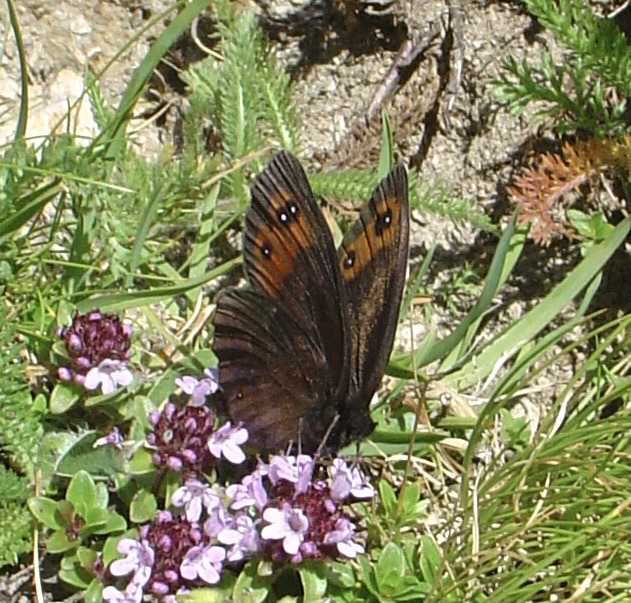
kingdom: Animalia
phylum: Arthropoda
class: Insecta
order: Lepidoptera
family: Nymphalidae
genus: Erebia
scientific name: Erebia meolans
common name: Piedmont ringlet
